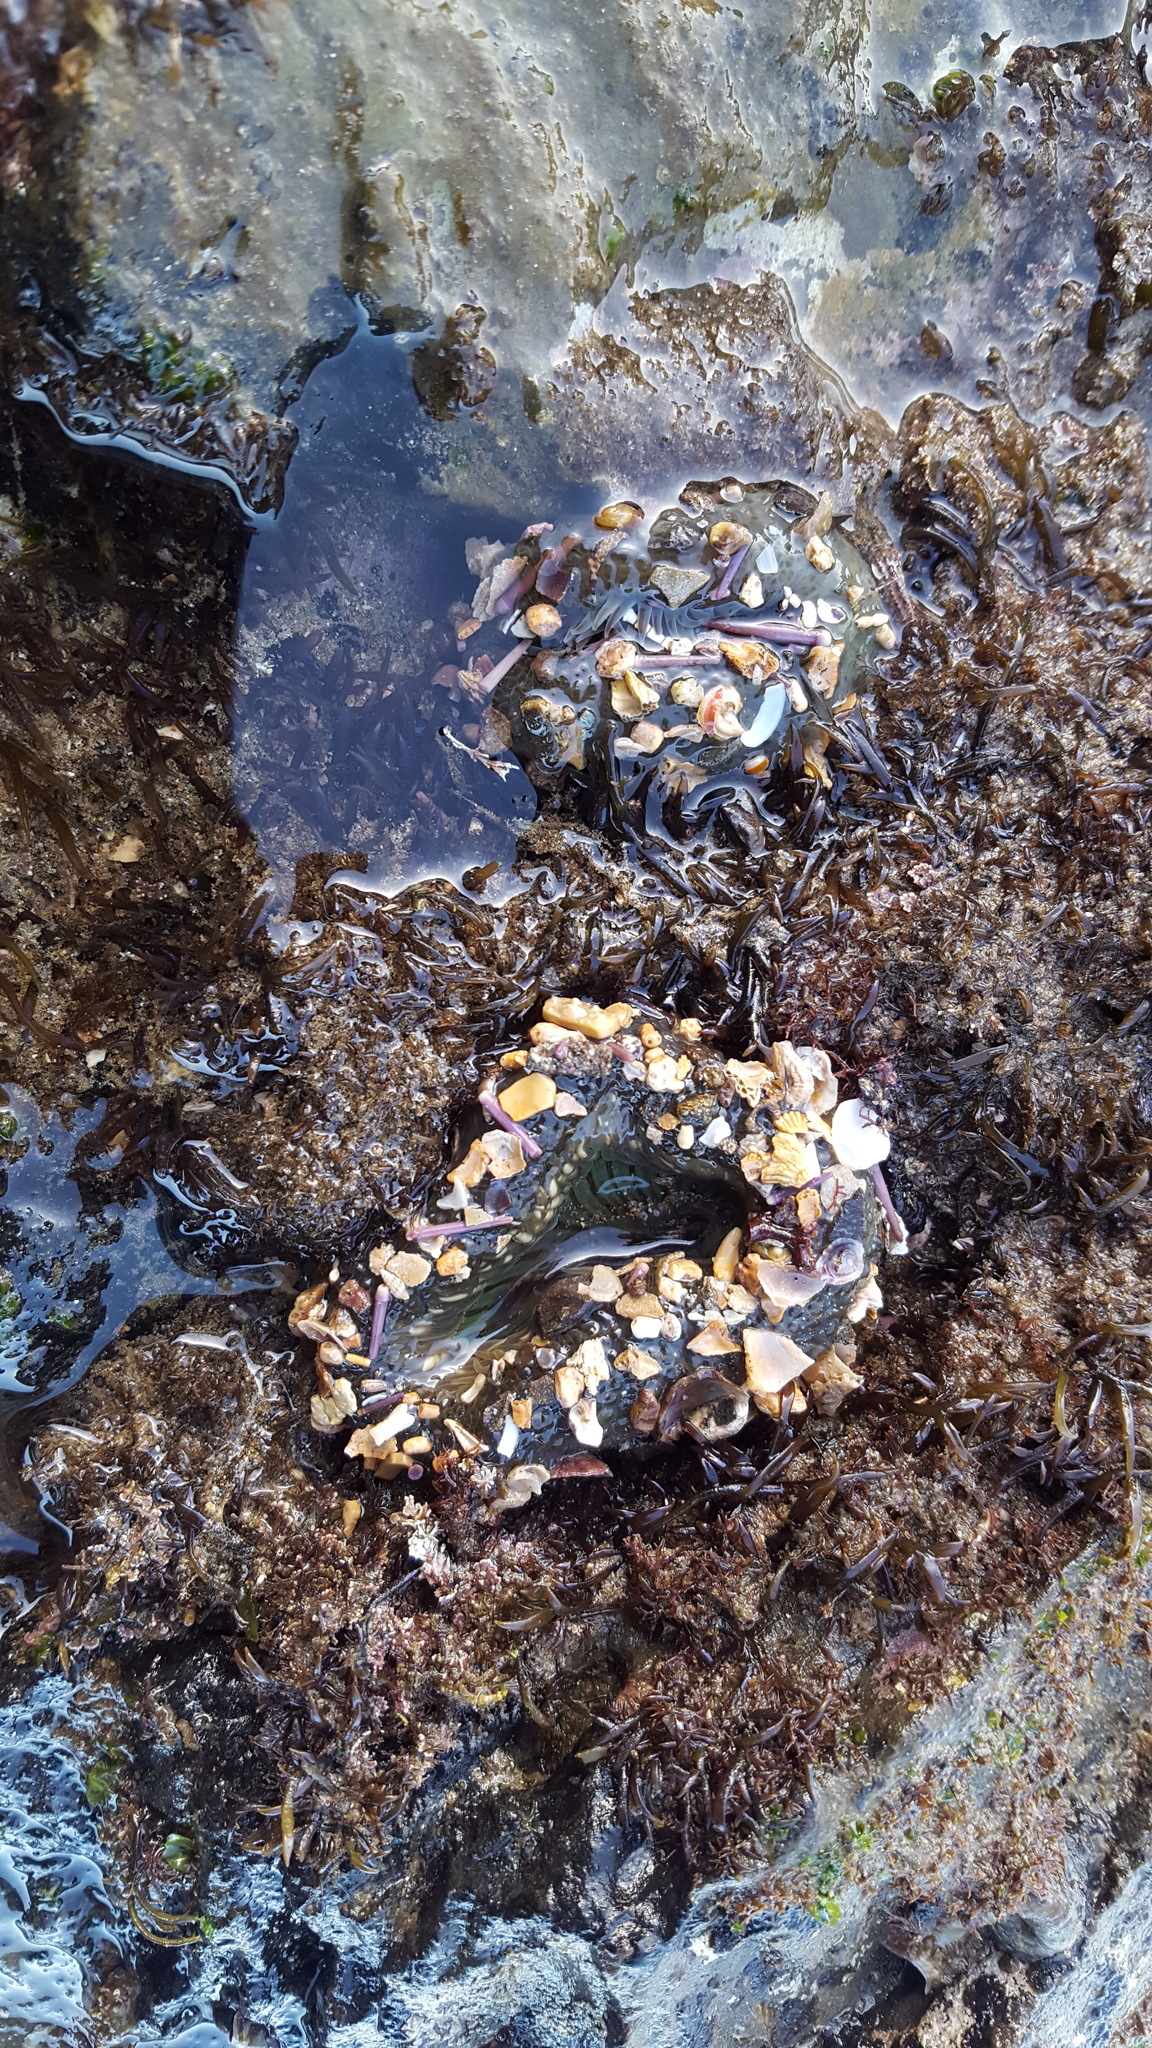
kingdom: Animalia
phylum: Cnidaria
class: Anthozoa
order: Actiniaria
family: Actiniidae
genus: Anthopleura
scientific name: Anthopleura sola
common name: Sun anemone
